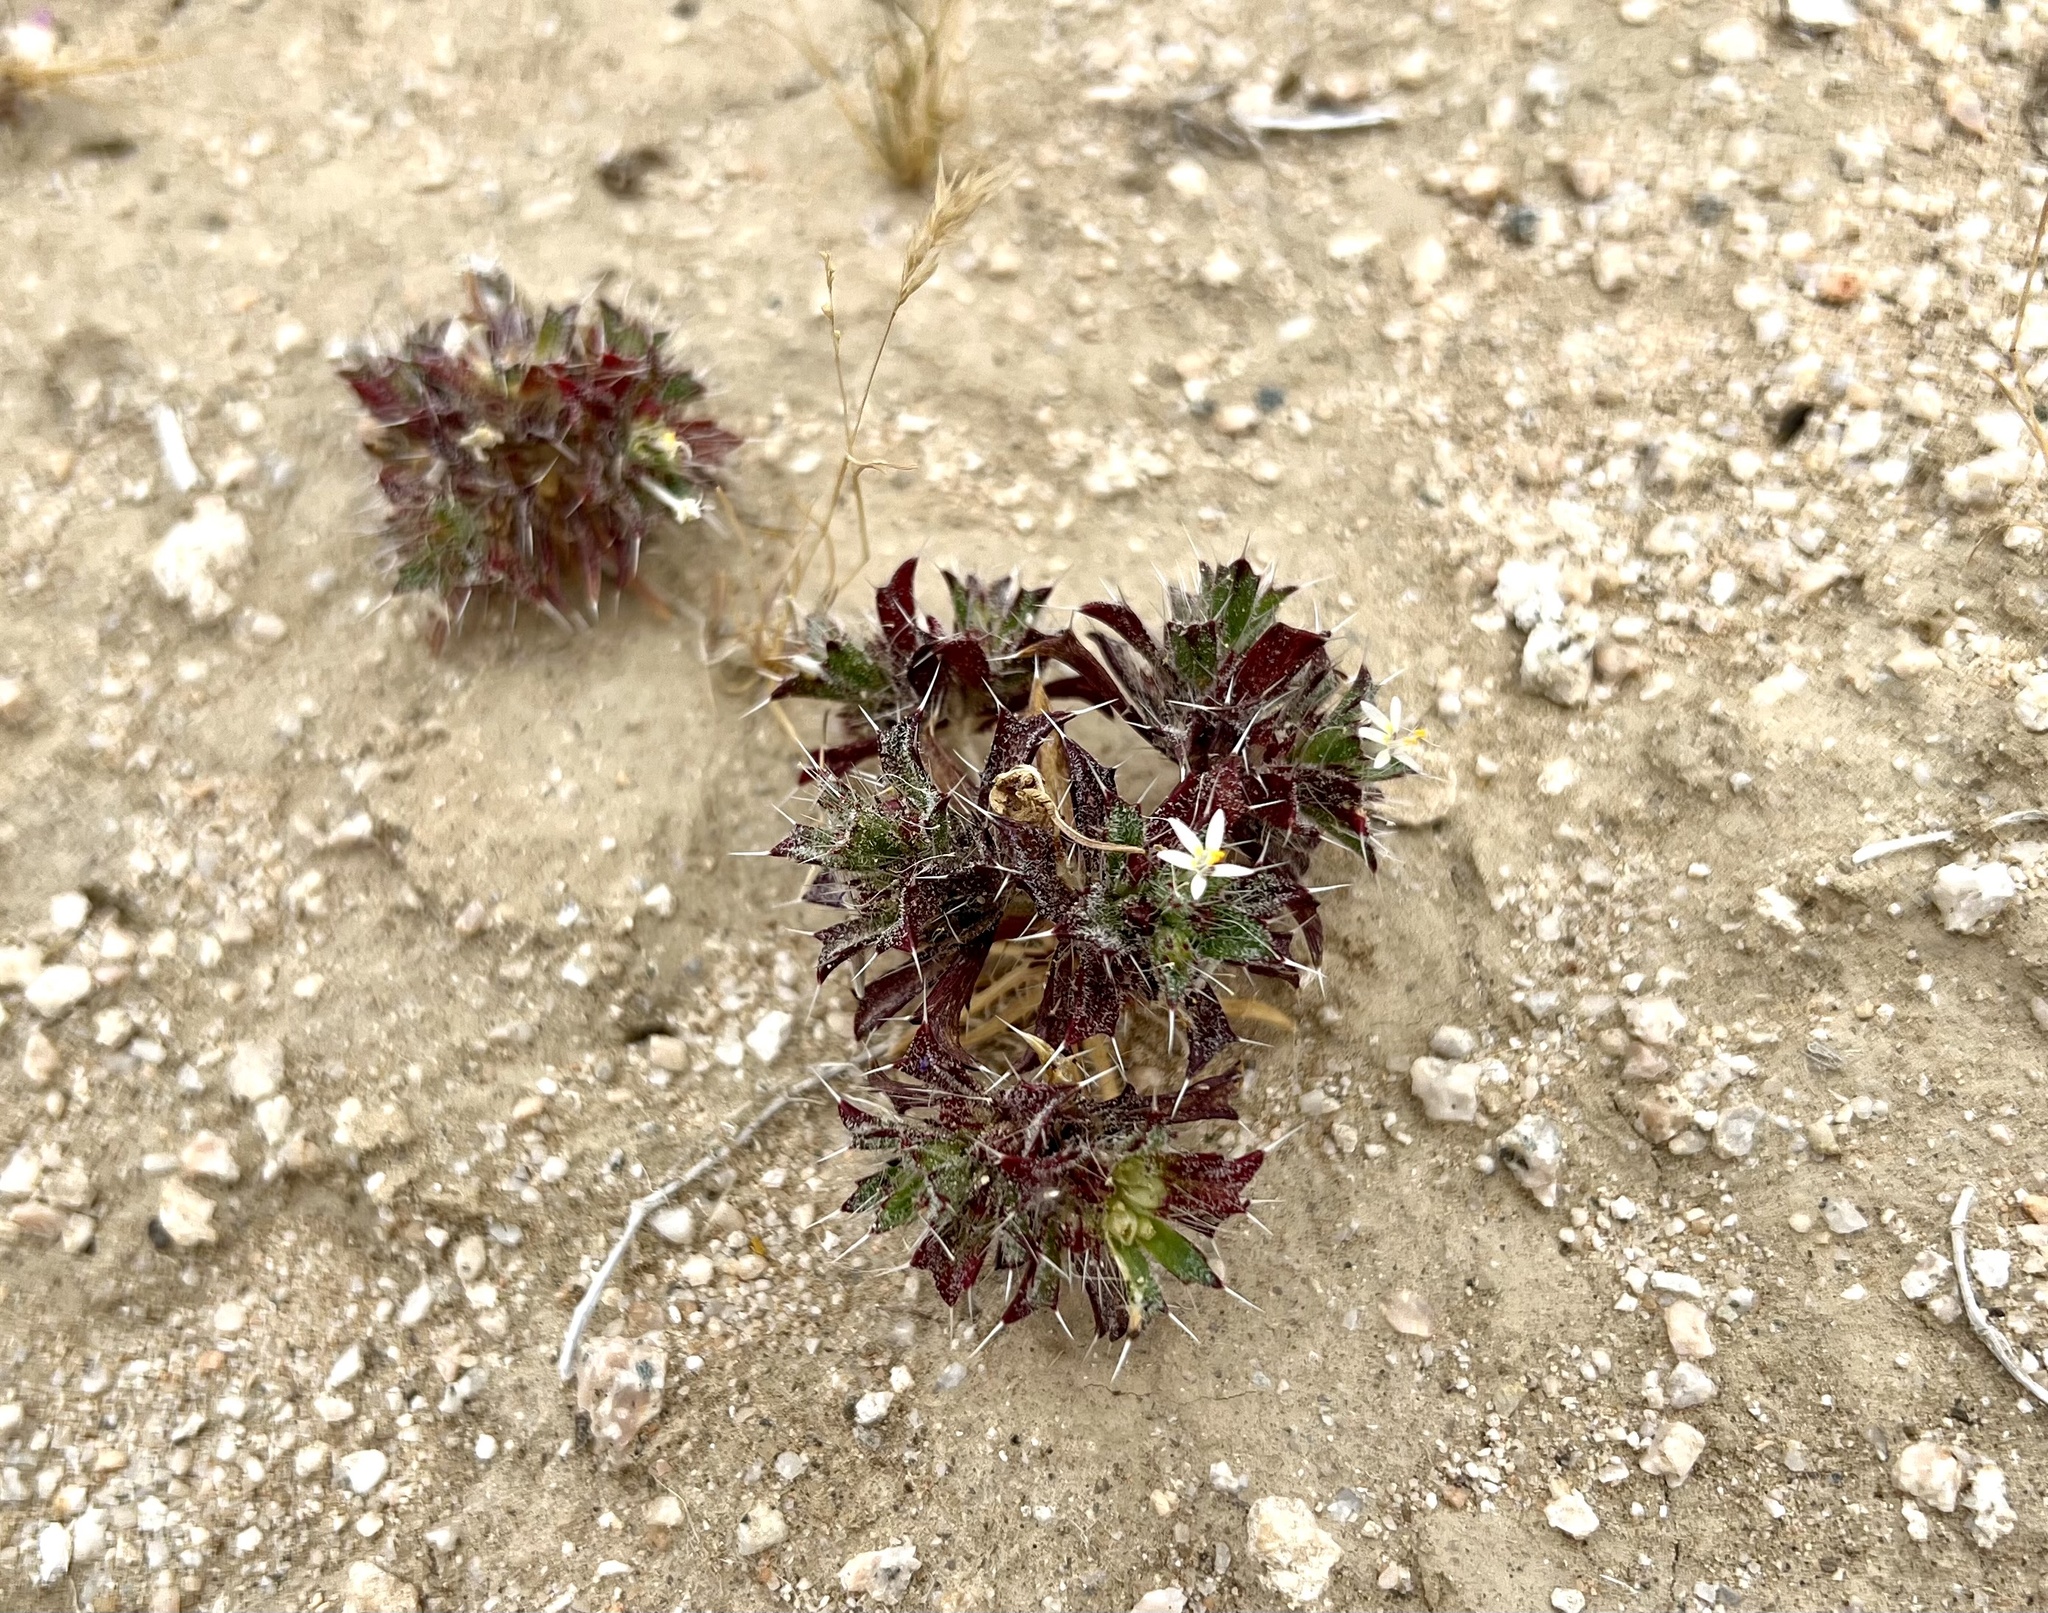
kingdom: Plantae
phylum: Tracheophyta
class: Magnoliopsida
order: Ericales
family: Polemoniaceae
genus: Loeseliastrum
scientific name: Loeseliastrum schottii
